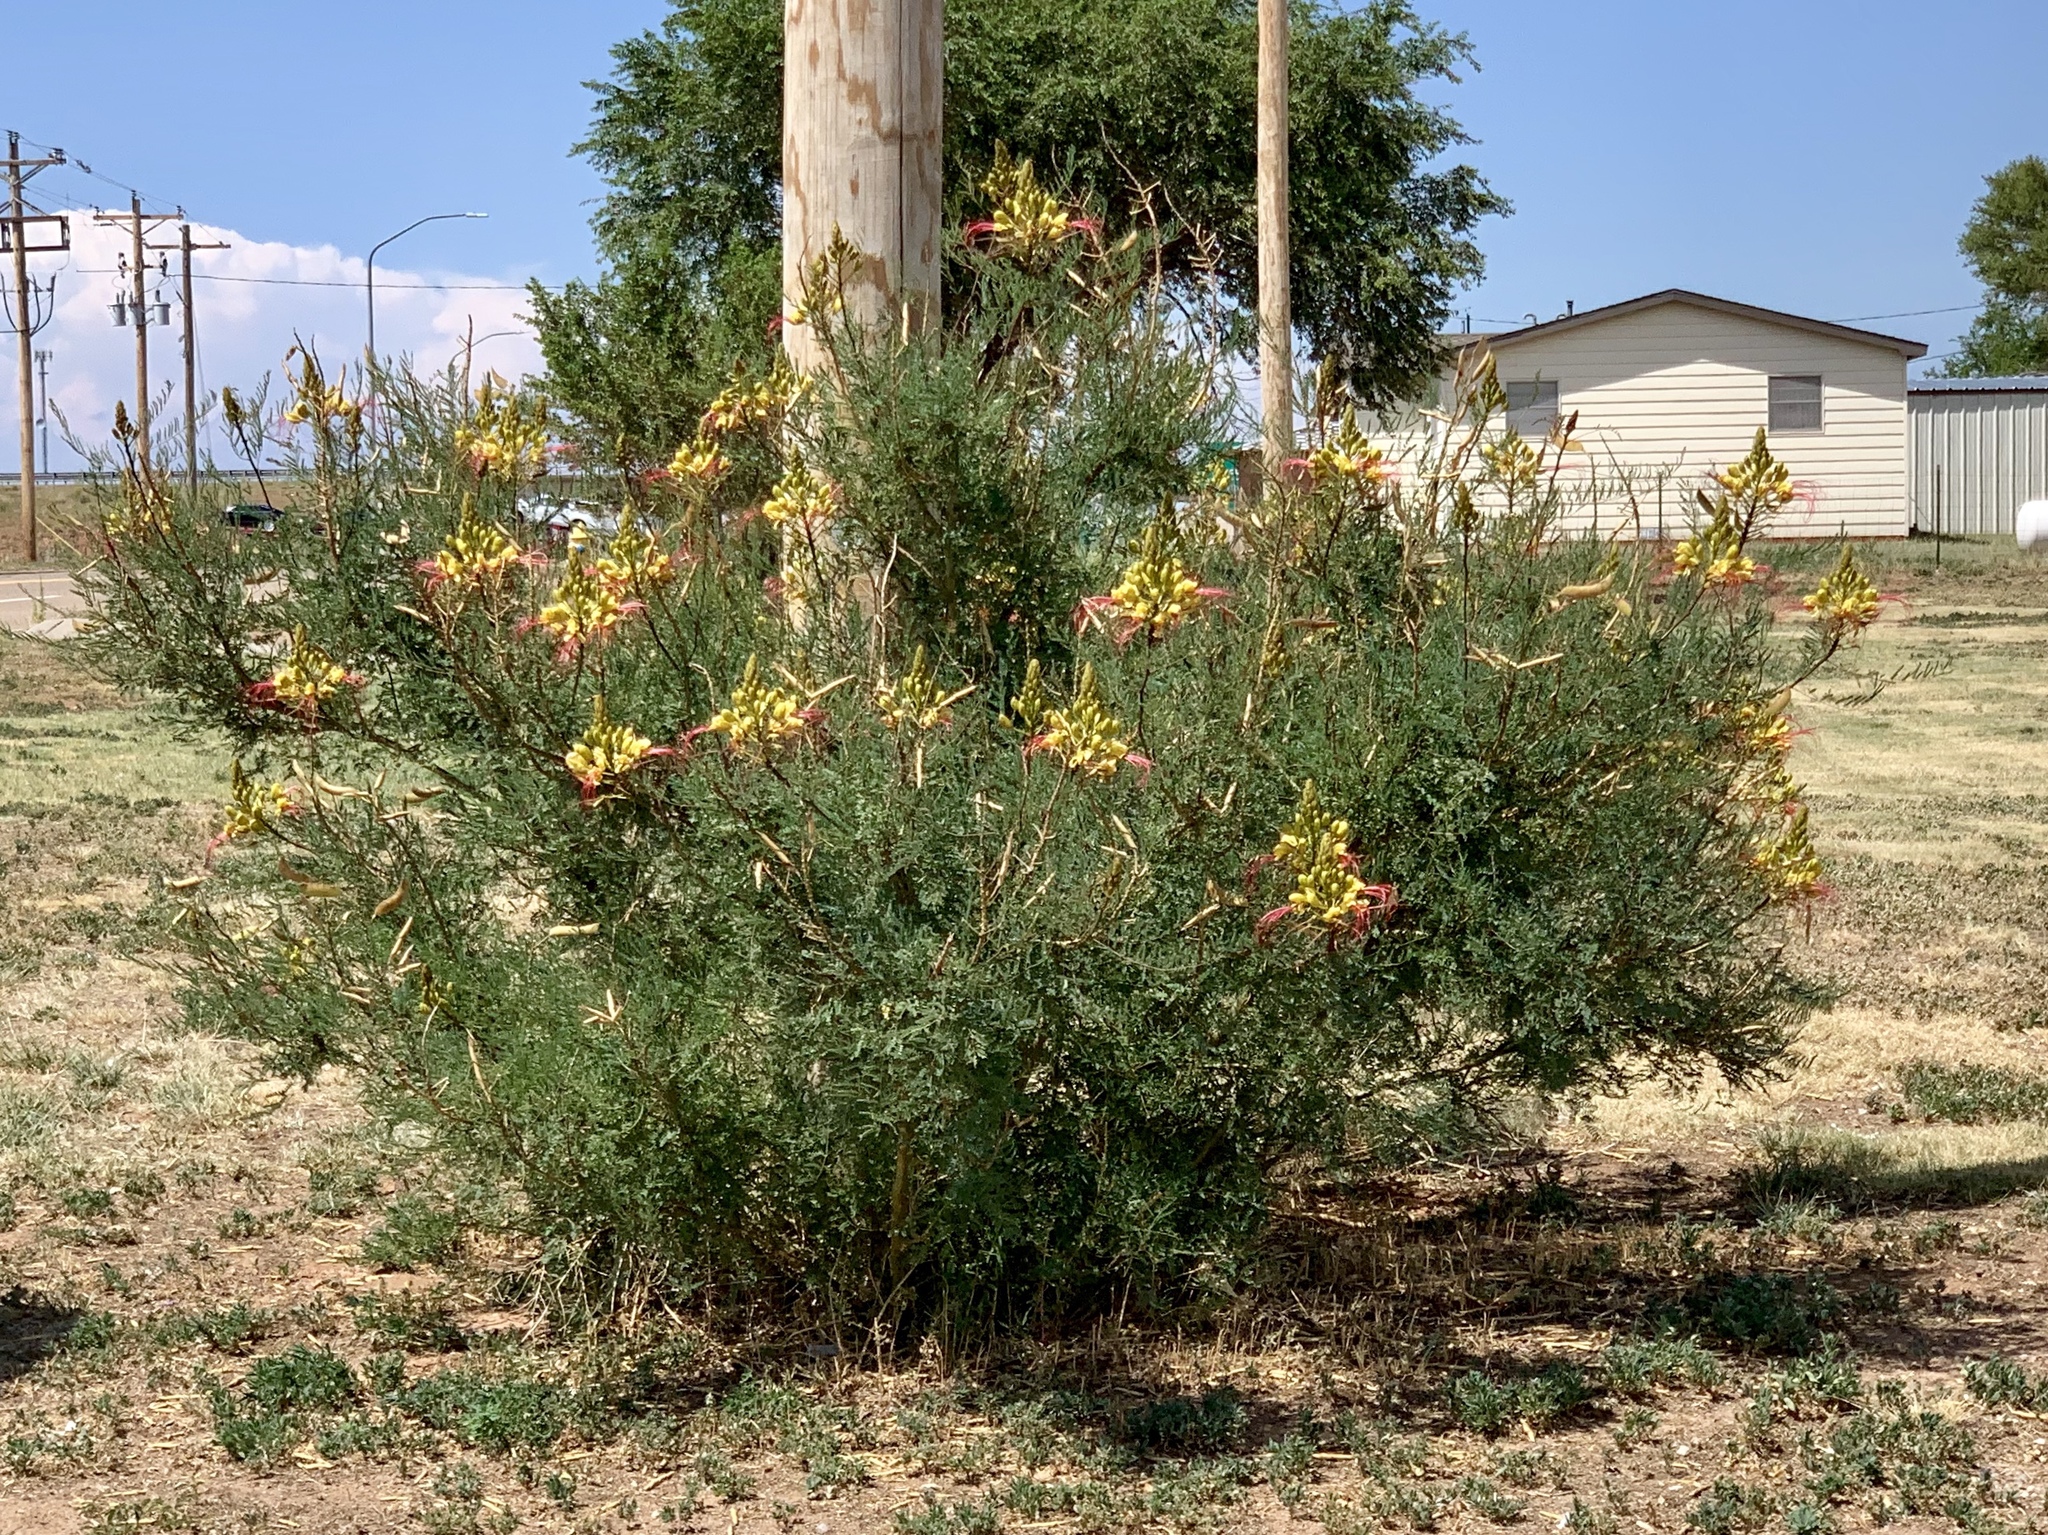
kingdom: Plantae
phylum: Tracheophyta
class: Magnoliopsida
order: Fabales
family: Fabaceae
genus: Erythrostemon
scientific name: Erythrostemon gilliesii
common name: Bird-of-paradise shrub
